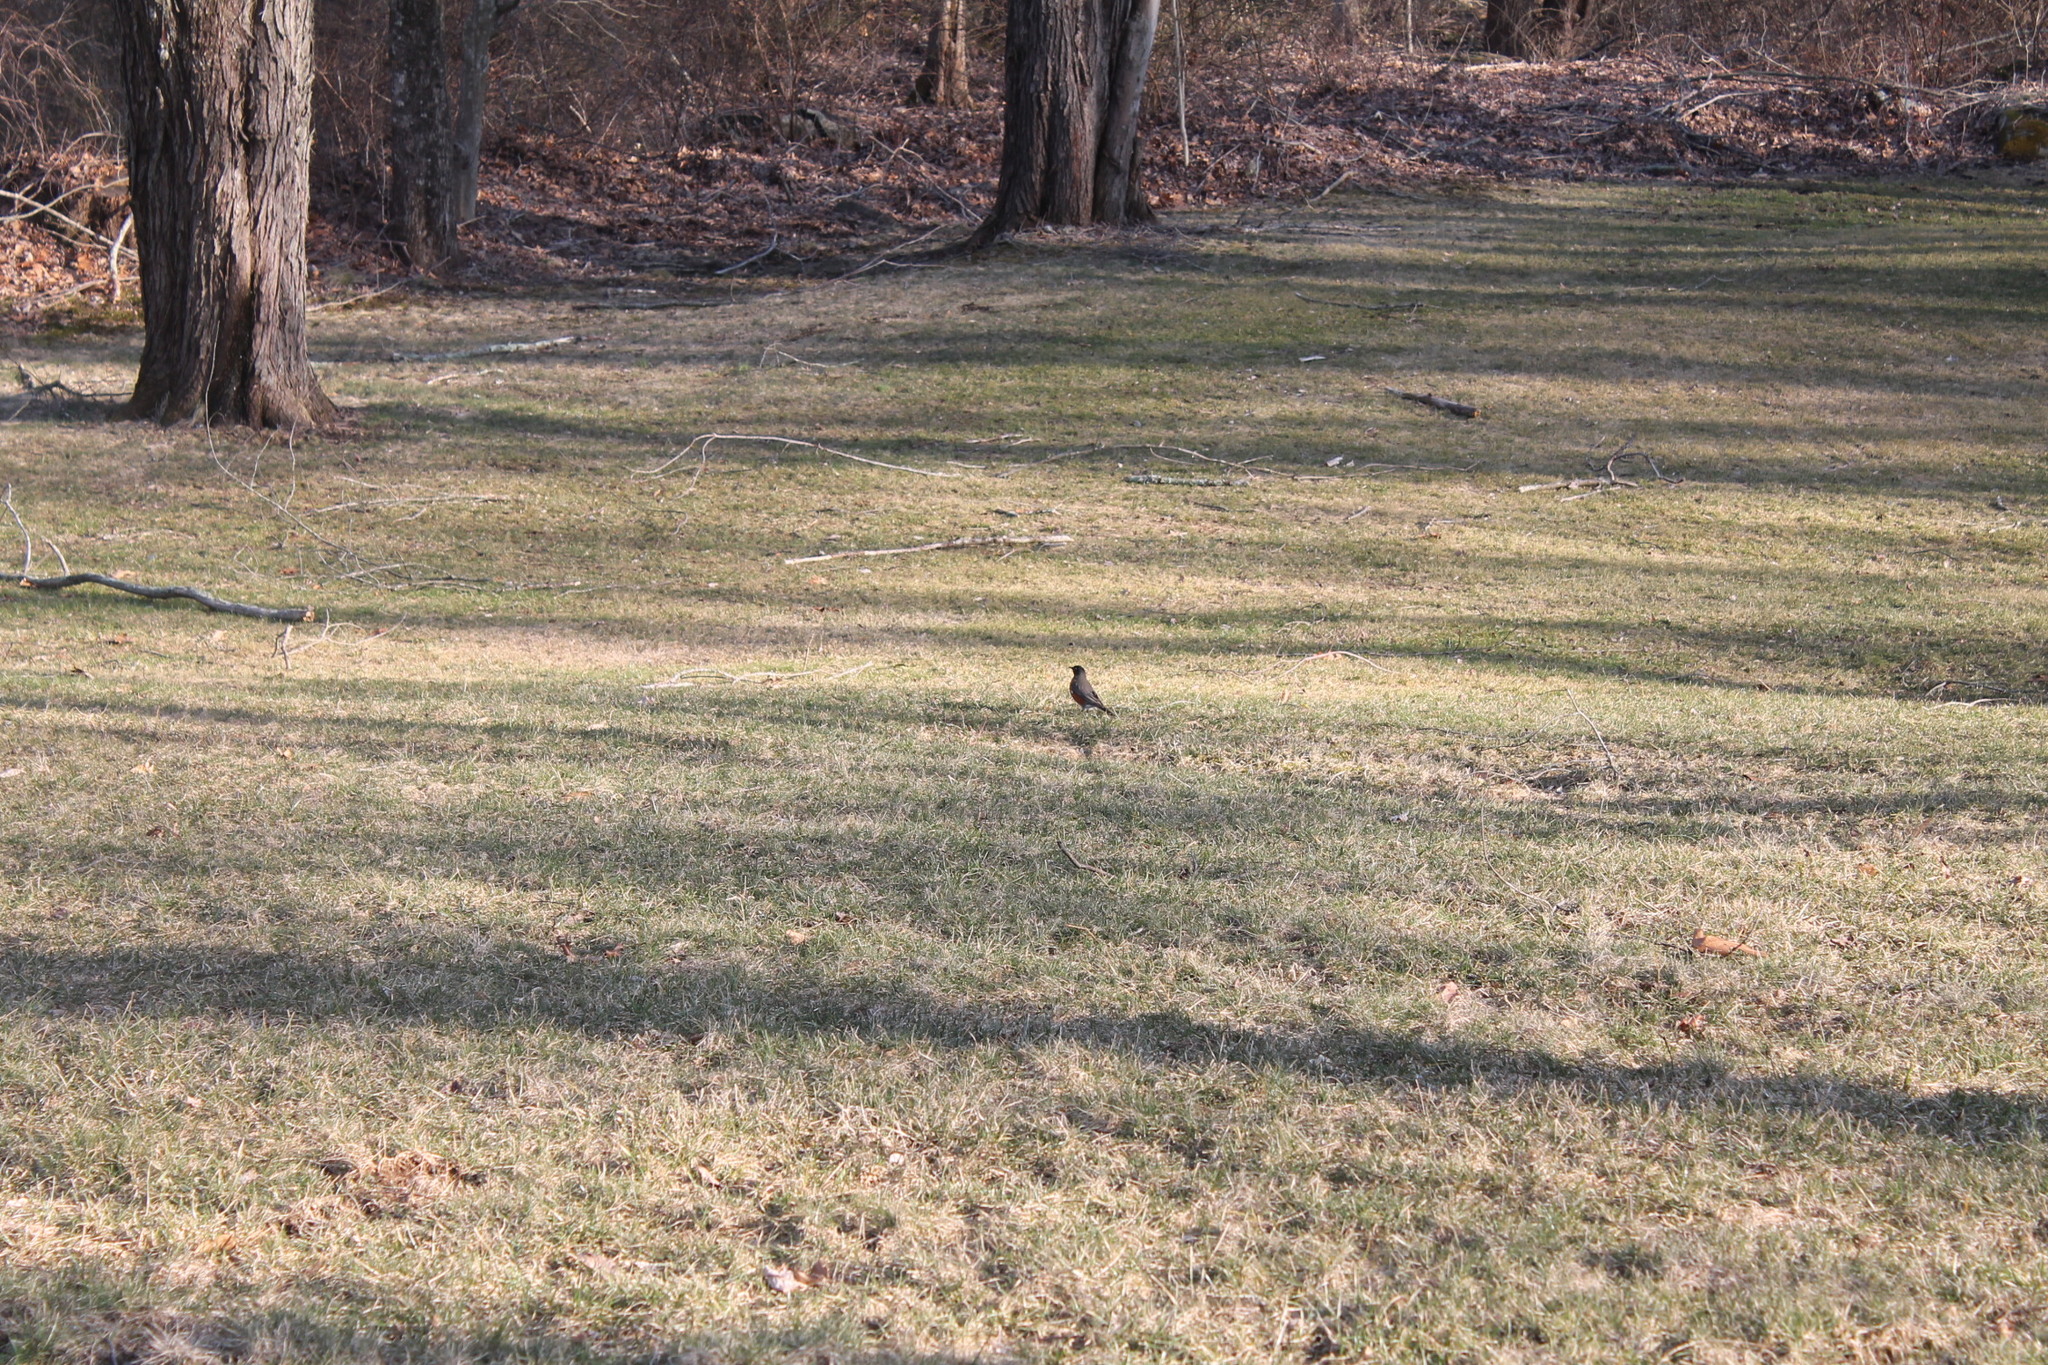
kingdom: Animalia
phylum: Chordata
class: Aves
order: Passeriformes
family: Turdidae
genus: Turdus
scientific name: Turdus migratorius
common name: American robin
